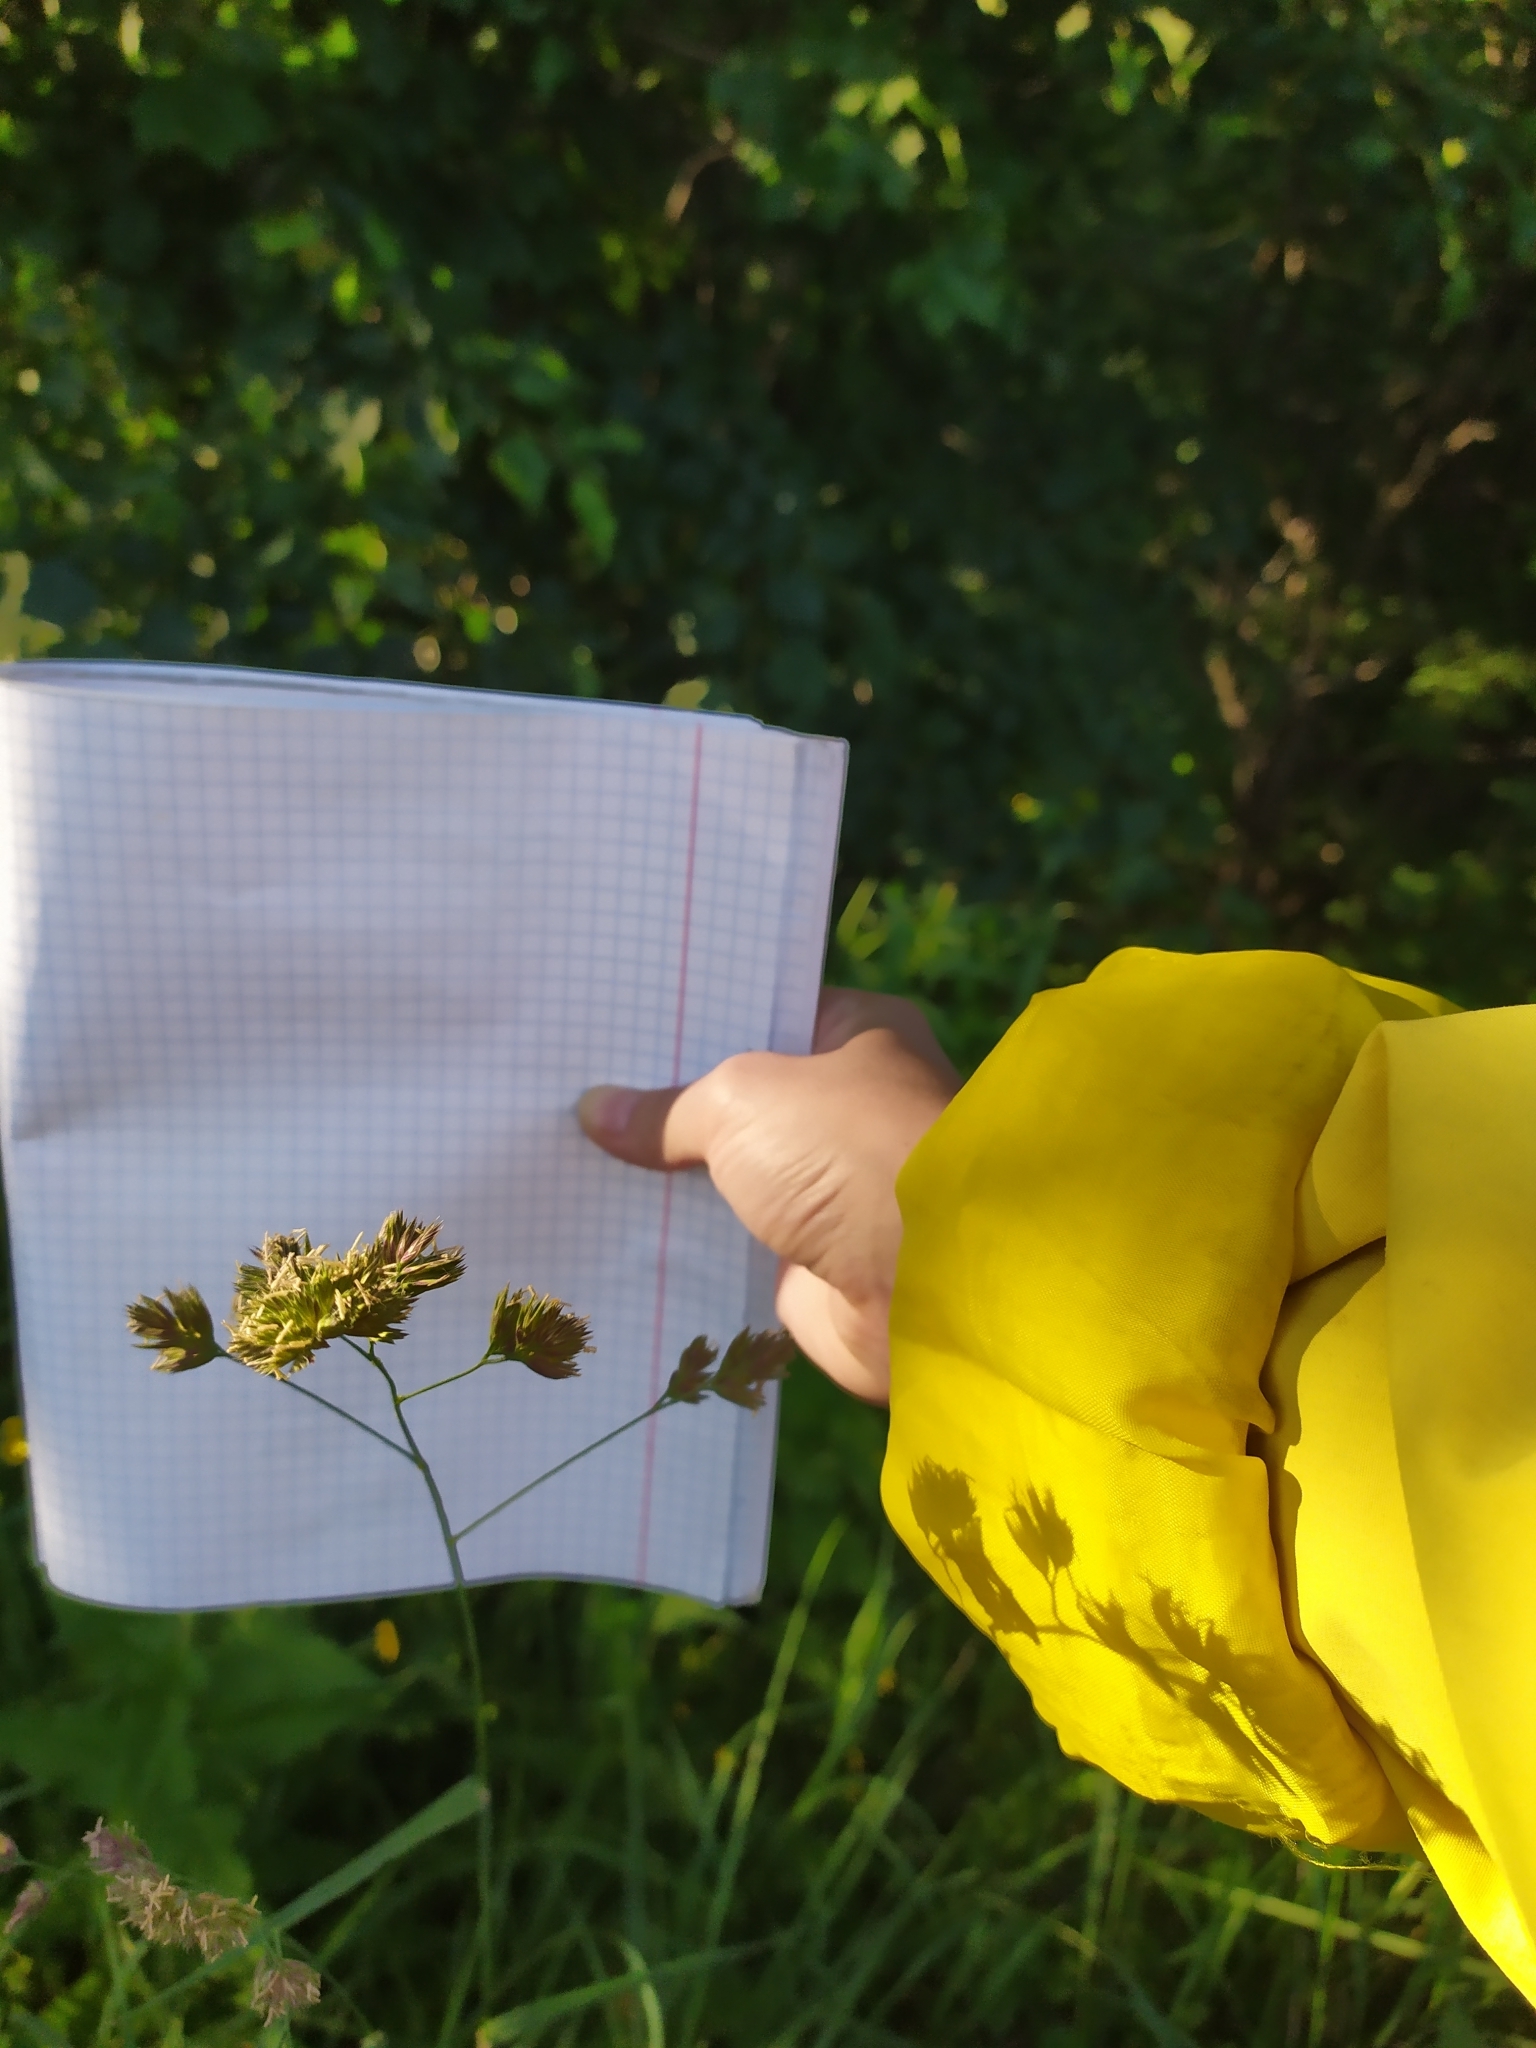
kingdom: Plantae
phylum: Tracheophyta
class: Liliopsida
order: Poales
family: Poaceae
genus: Dactylis
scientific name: Dactylis glomerata
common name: Orchardgrass
